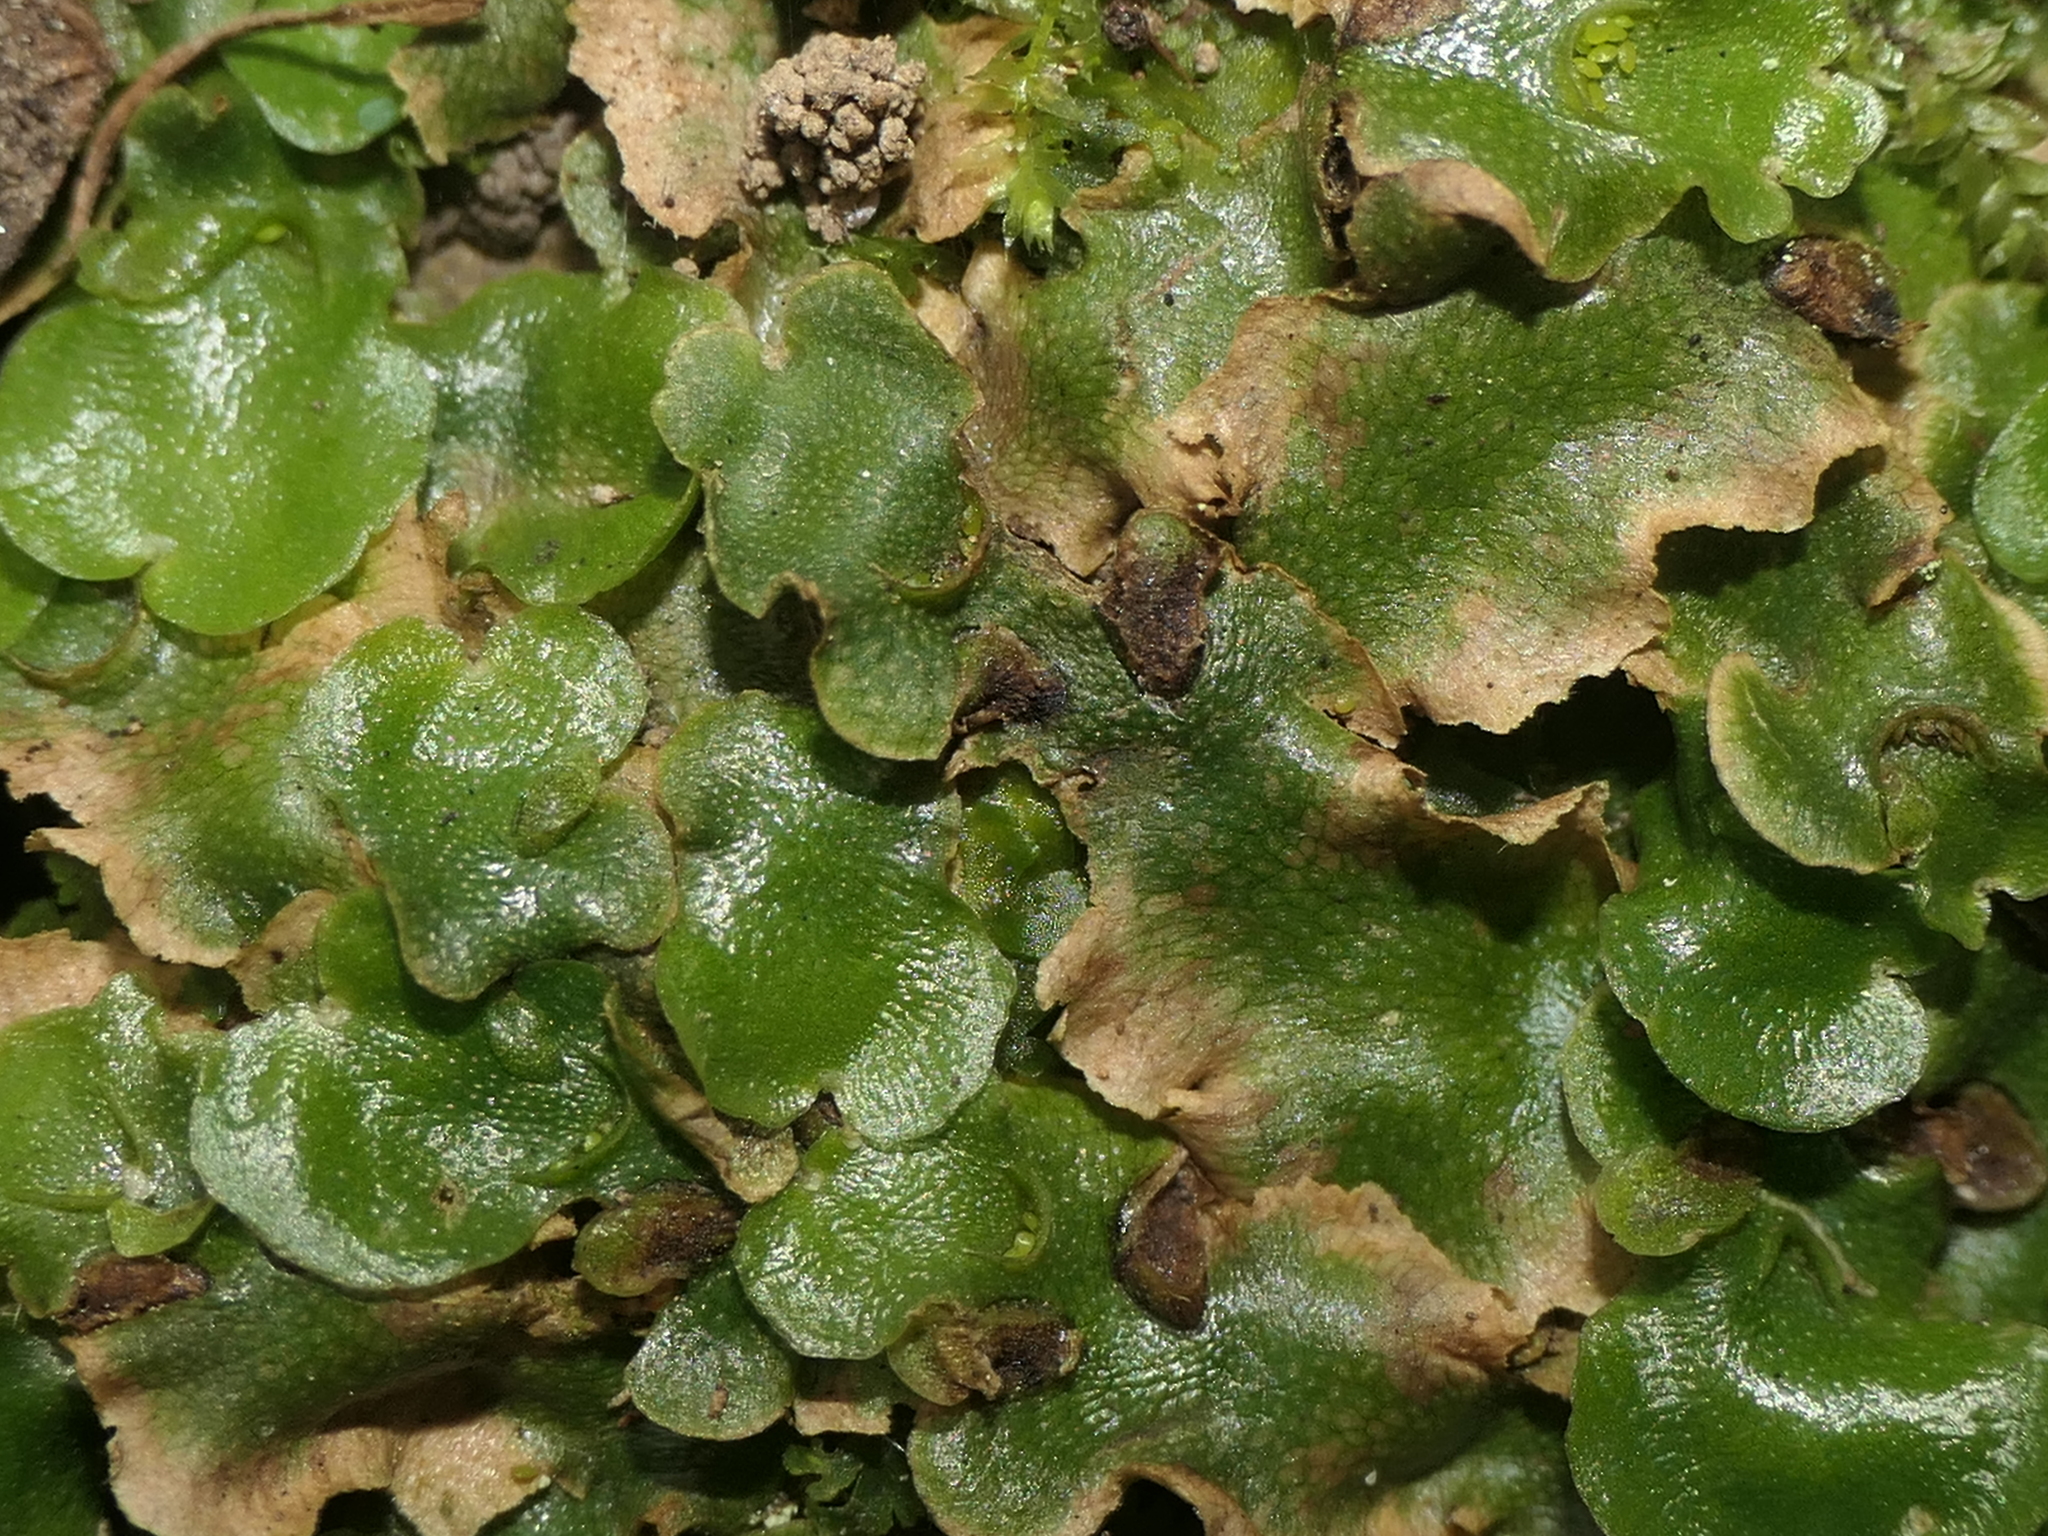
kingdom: Plantae
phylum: Marchantiophyta
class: Marchantiopsida
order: Lunulariales
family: Lunulariaceae
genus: Lunularia
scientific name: Lunularia cruciata
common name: Crescent-cup liverwort
